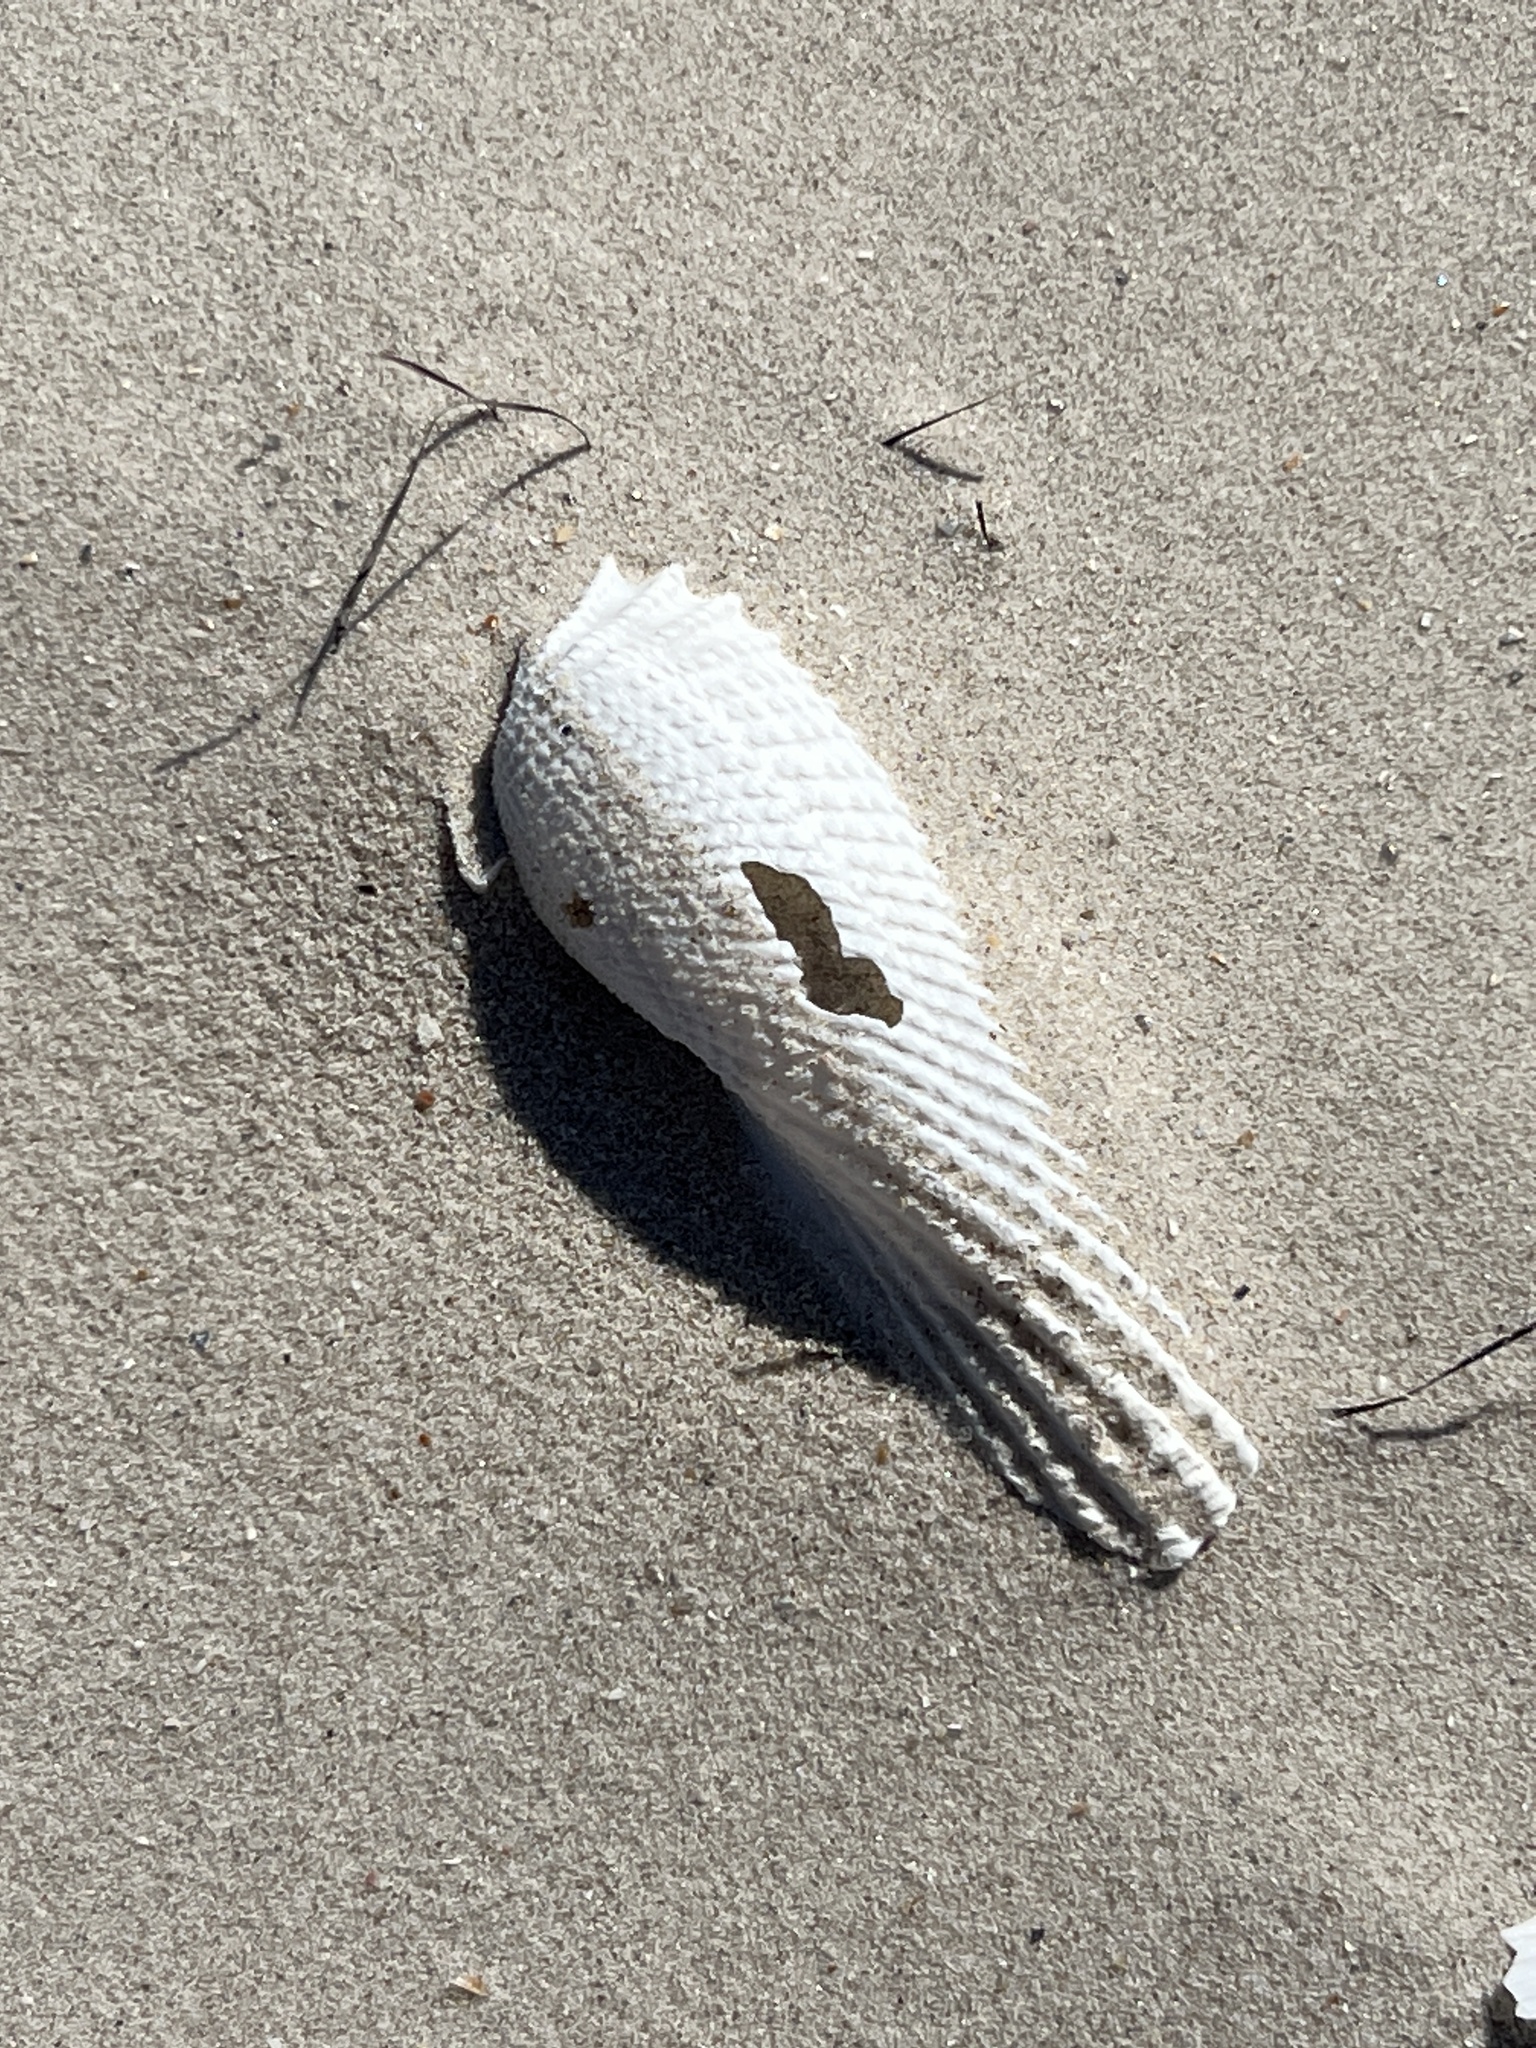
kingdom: Animalia
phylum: Mollusca
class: Bivalvia
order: Myida
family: Pholadidae
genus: Cyrtopleura
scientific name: Cyrtopleura costata
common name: Angel wing
